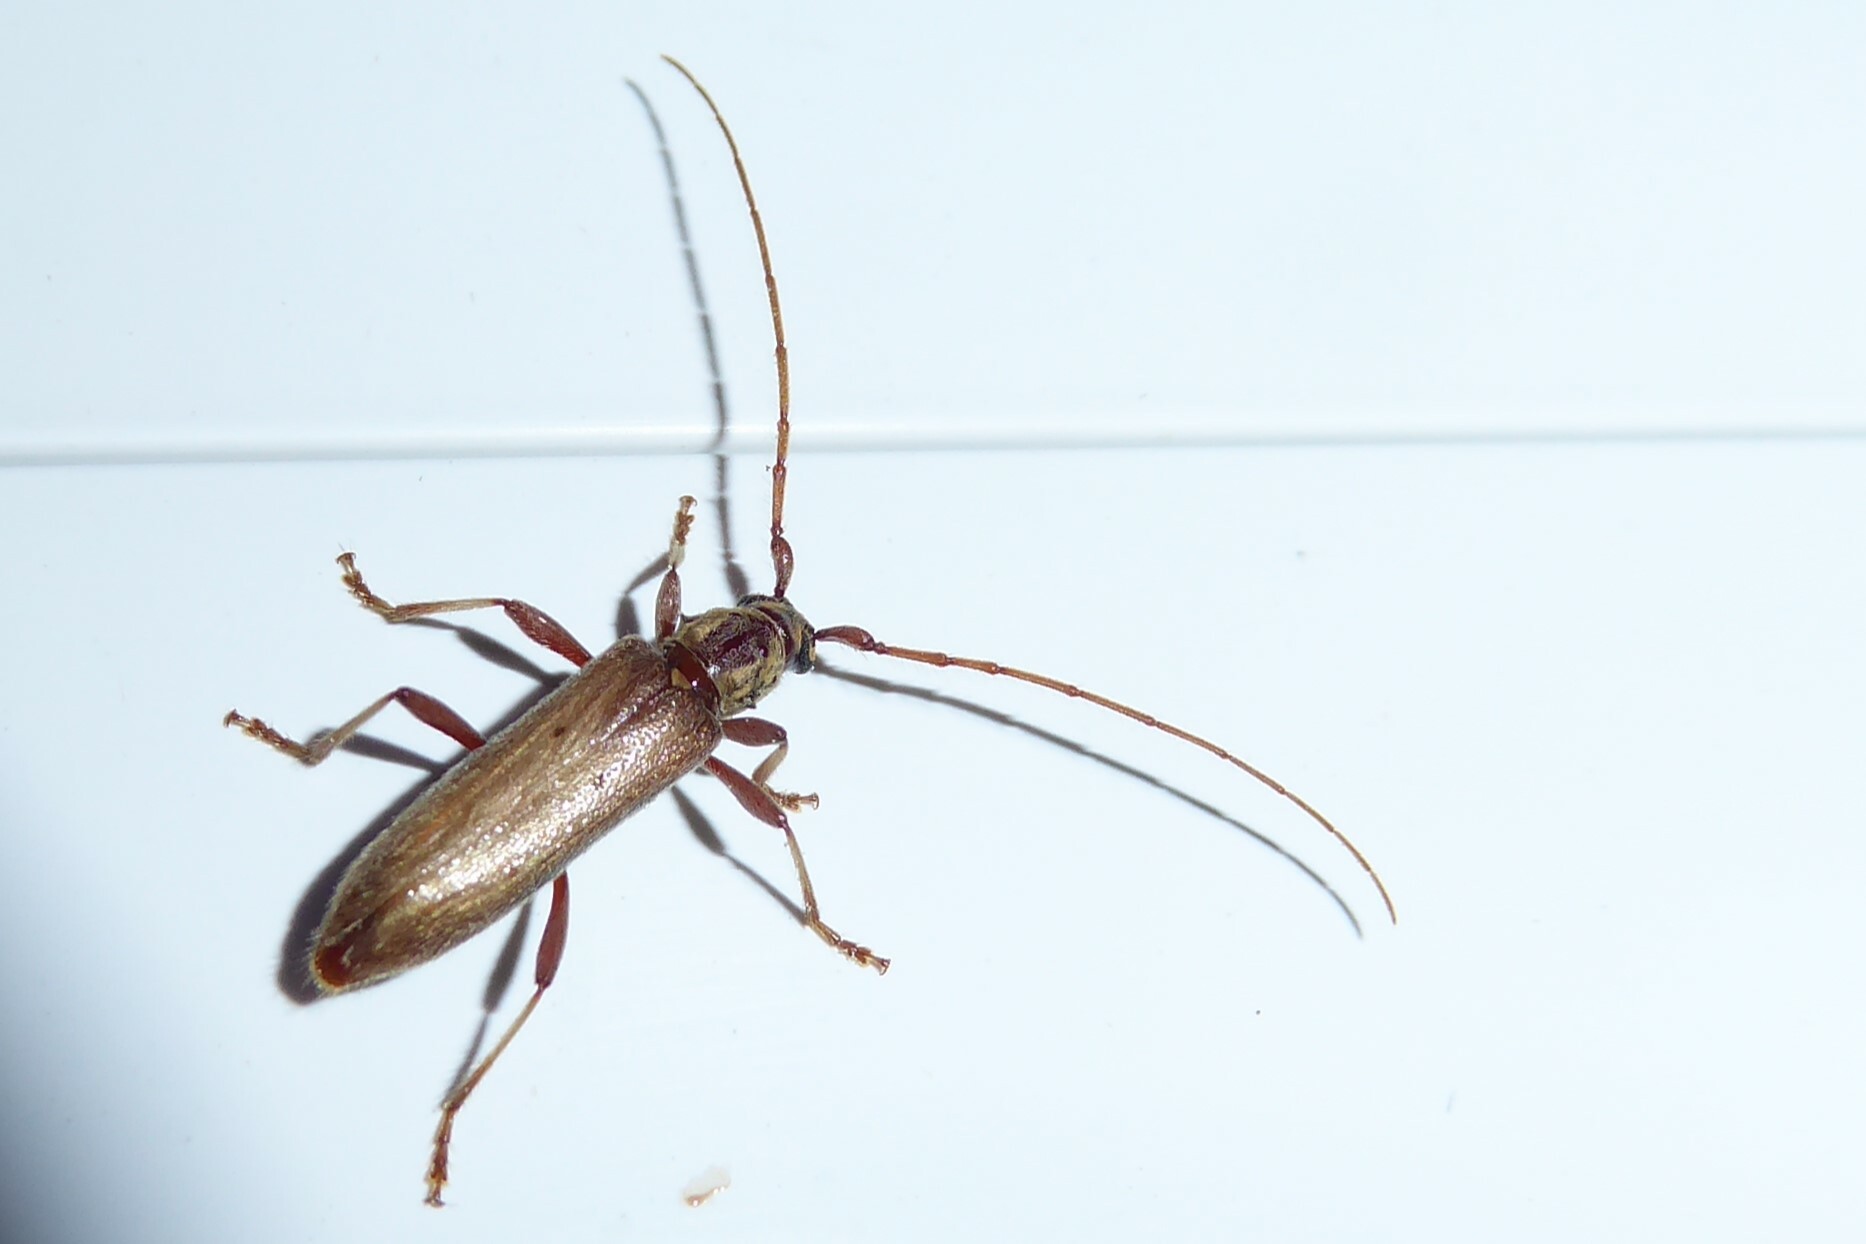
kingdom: Animalia
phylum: Arthropoda
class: Insecta
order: Coleoptera
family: Cerambycidae
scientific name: Cerambycidae
